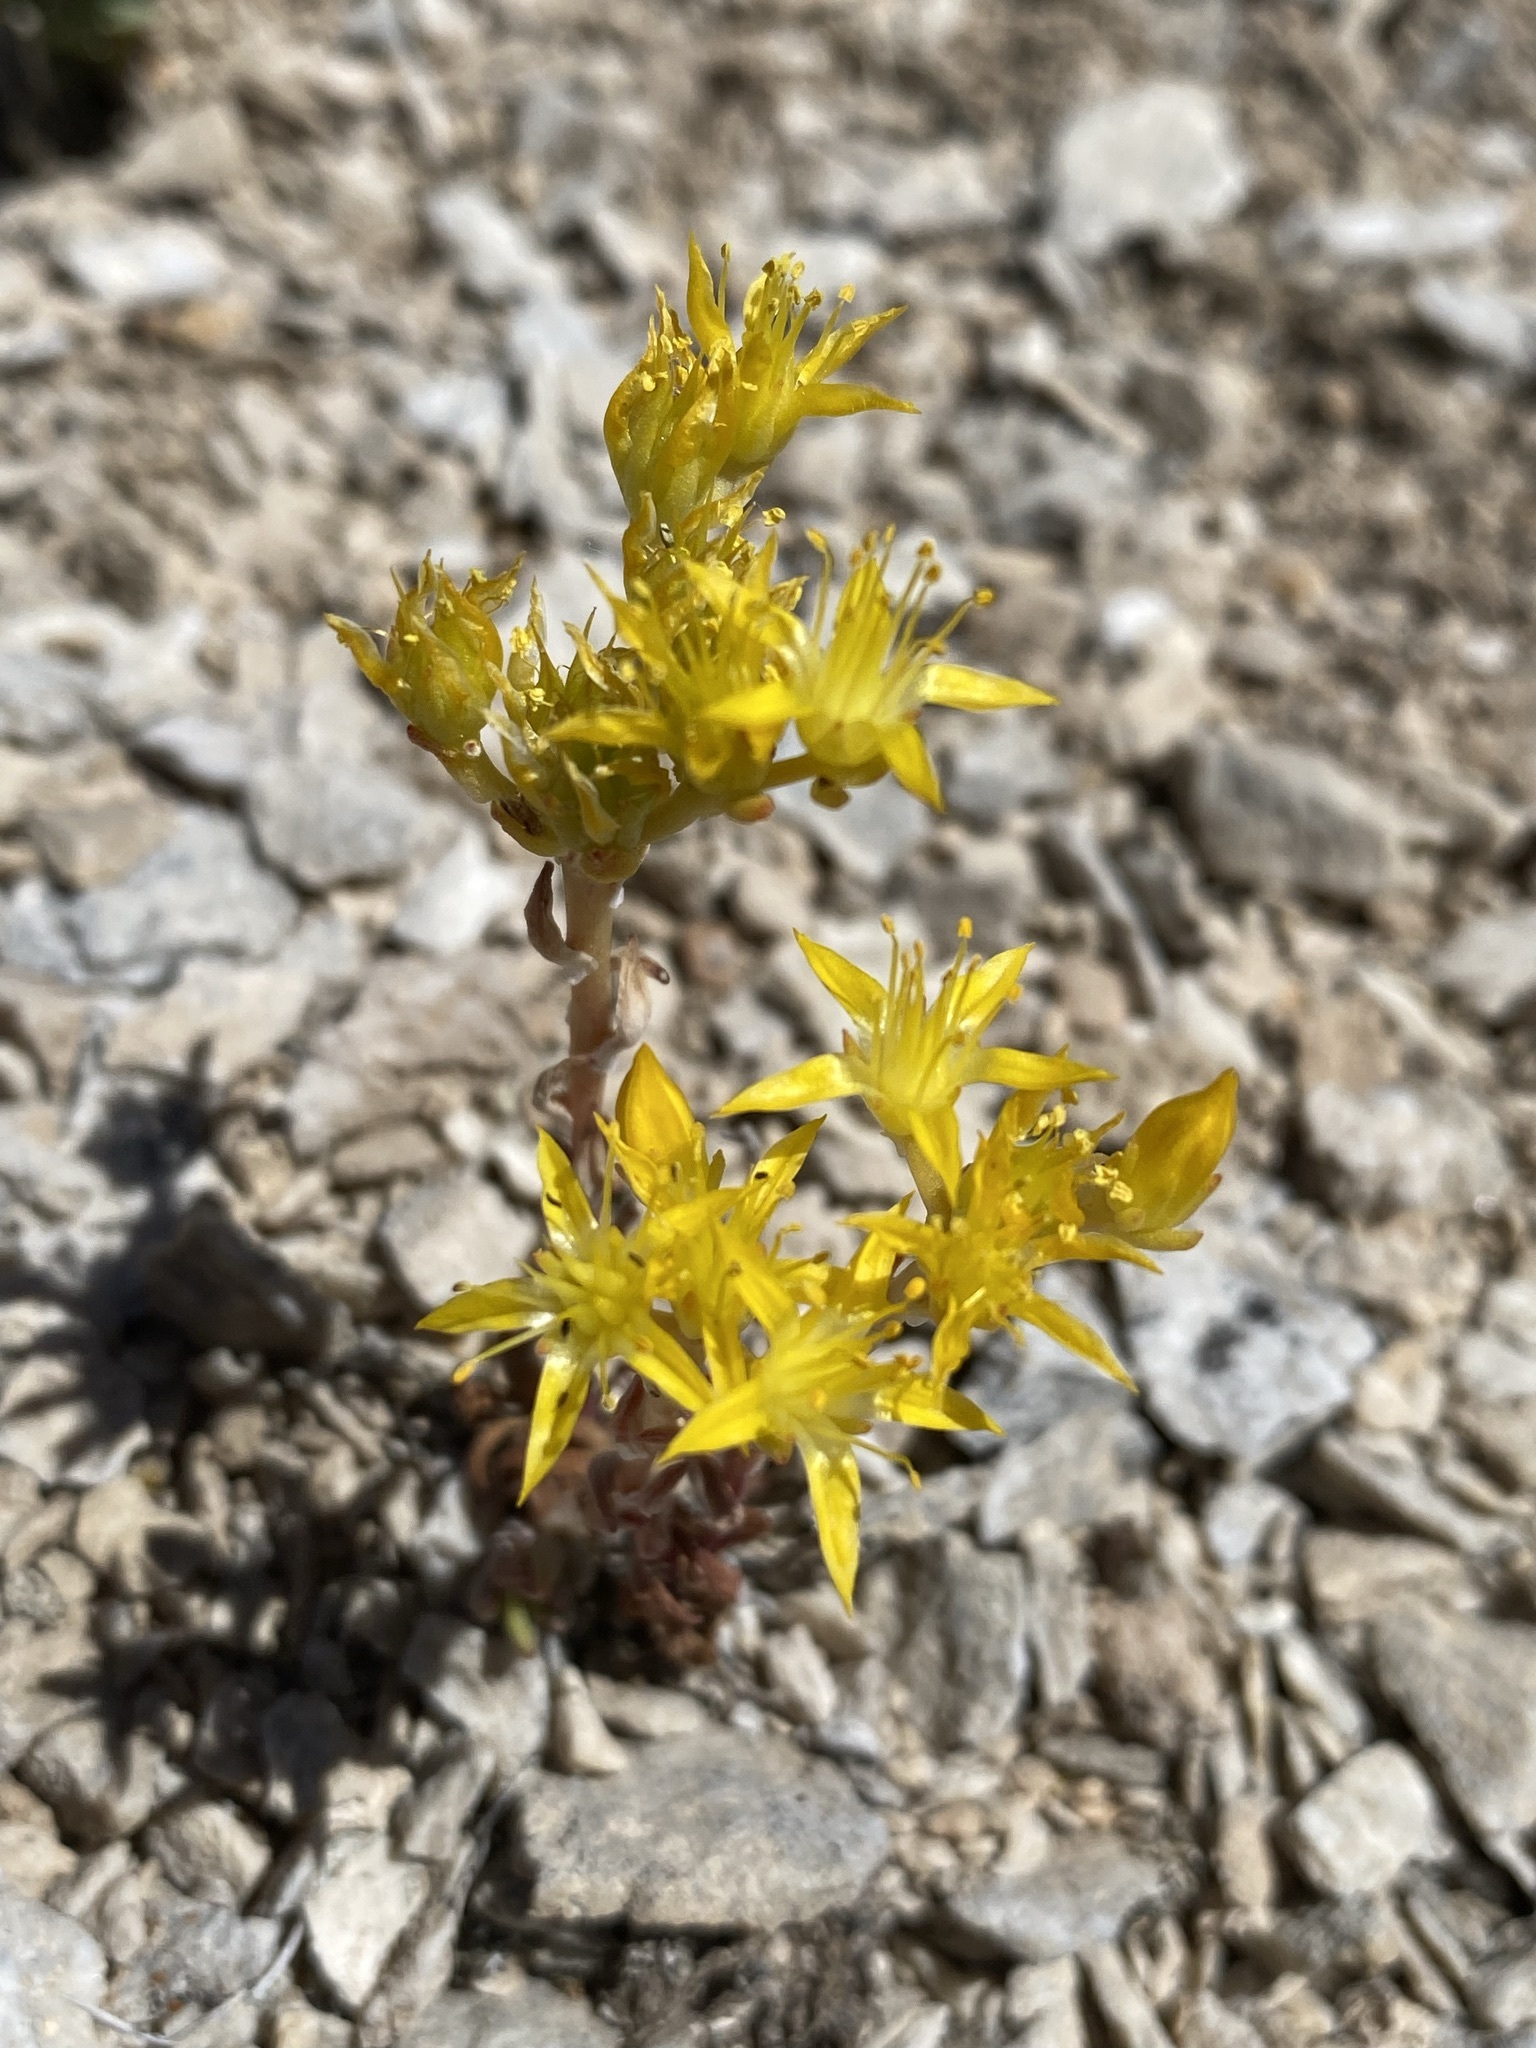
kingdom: Plantae
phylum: Tracheophyta
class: Magnoliopsida
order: Saxifragales
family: Crassulaceae
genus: Sedum
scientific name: Sedum lanceolatum
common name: Common stonecrop
